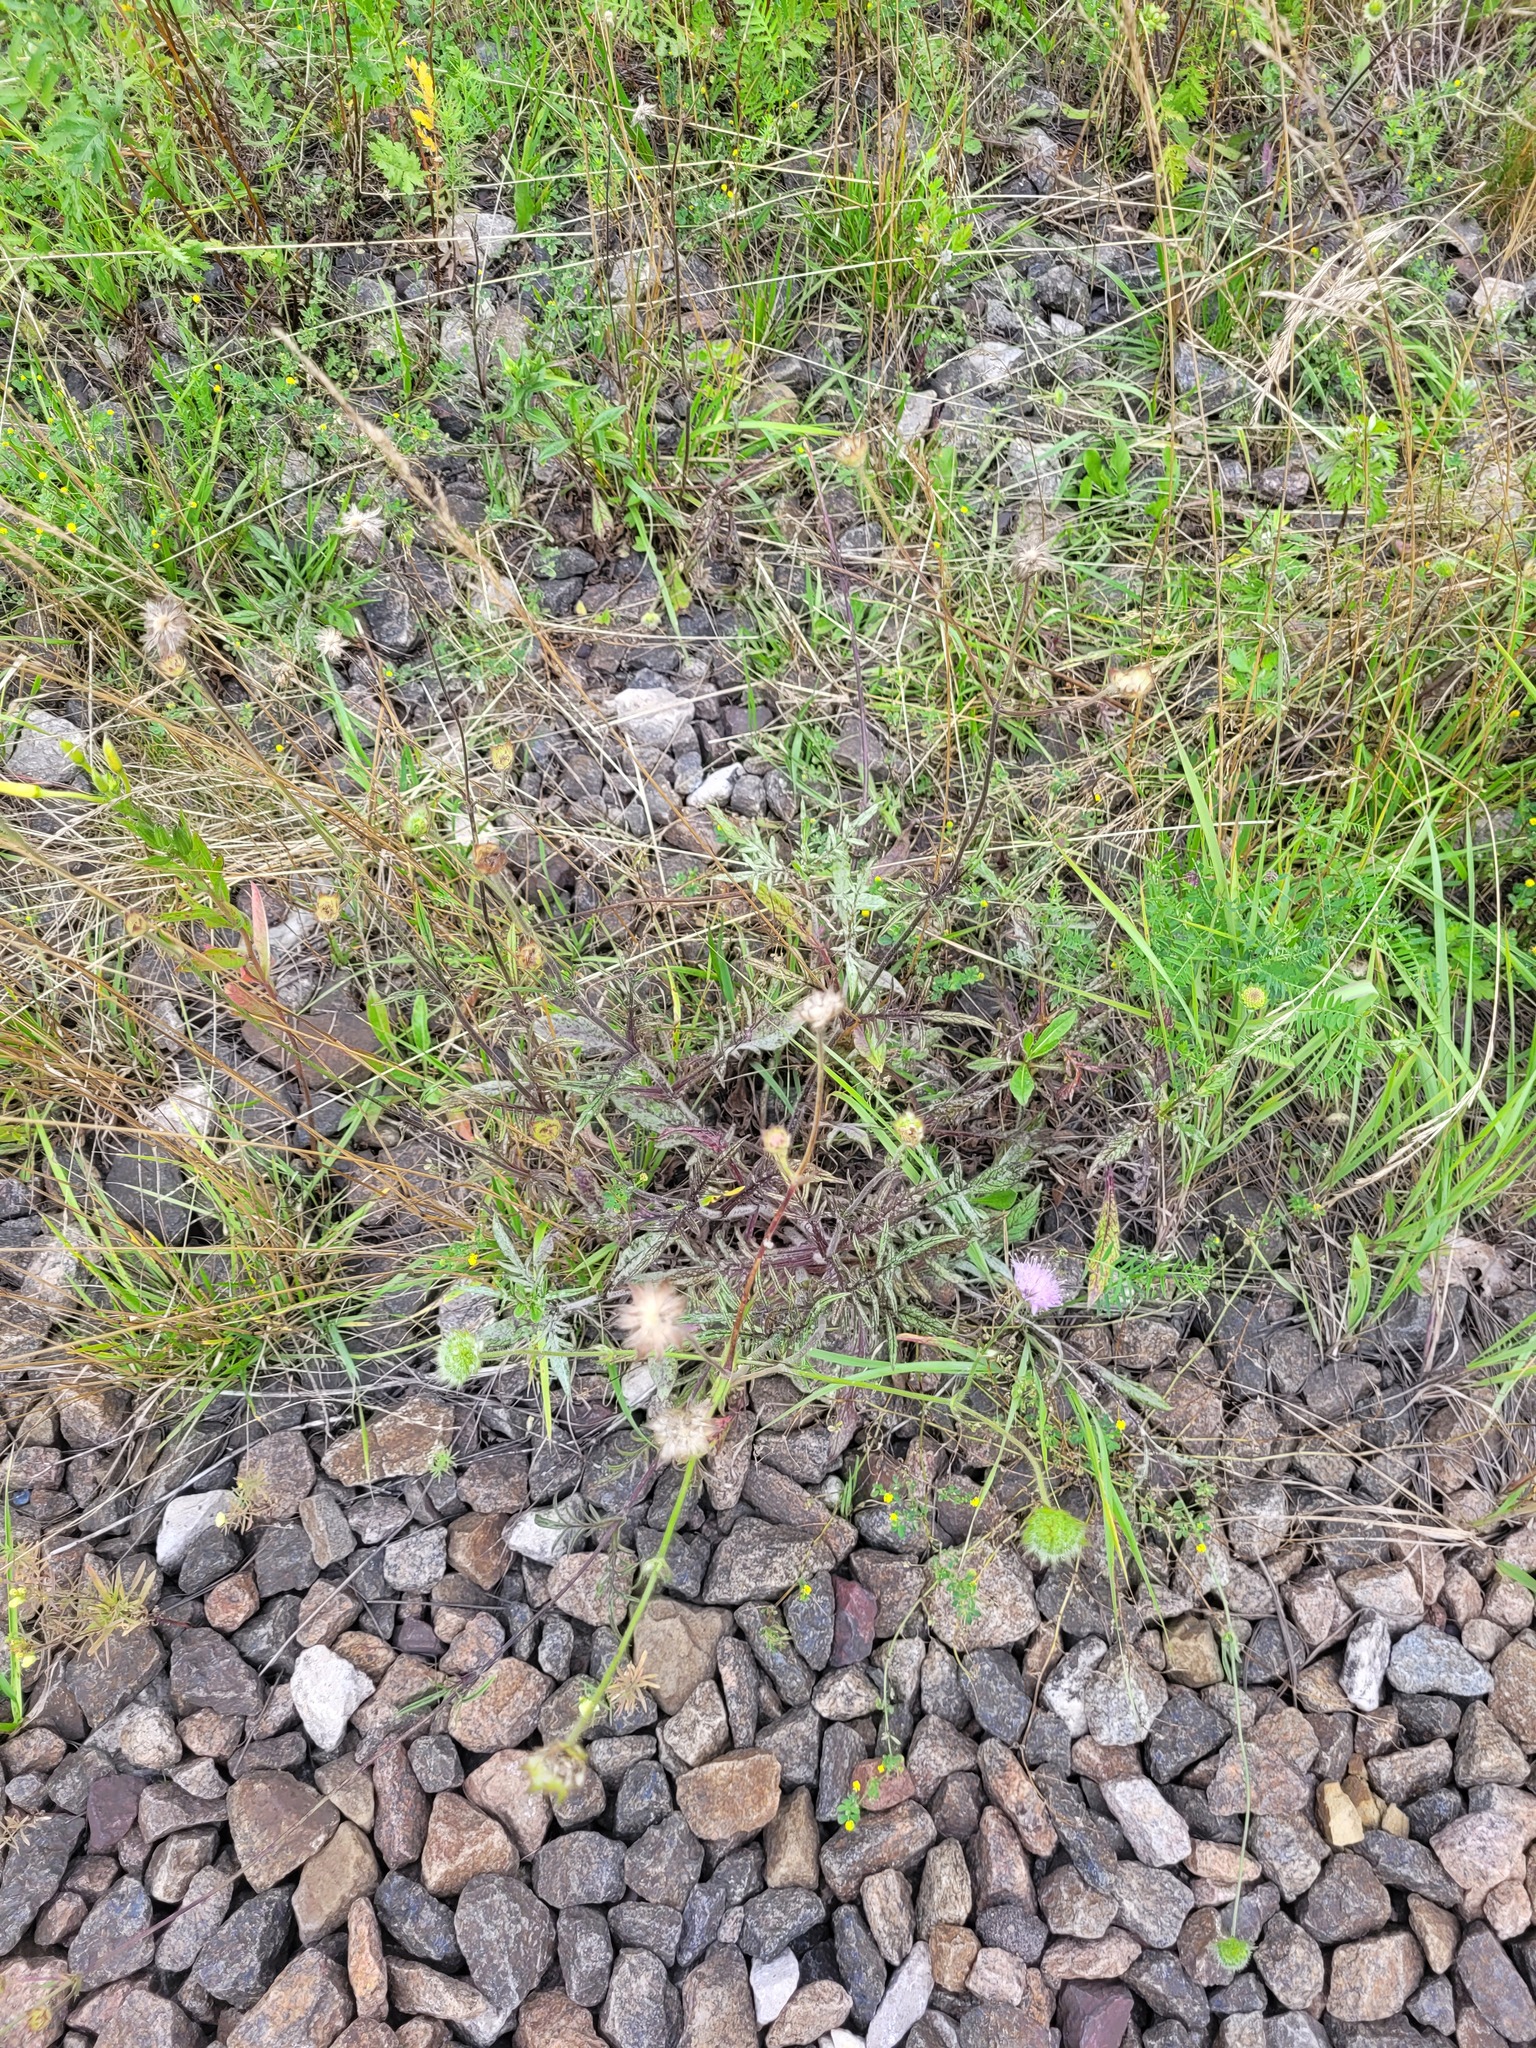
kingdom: Plantae
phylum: Tracheophyta
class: Magnoliopsida
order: Dipsacales
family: Caprifoliaceae
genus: Knautia
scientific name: Knautia arvensis
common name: Field scabiosa
